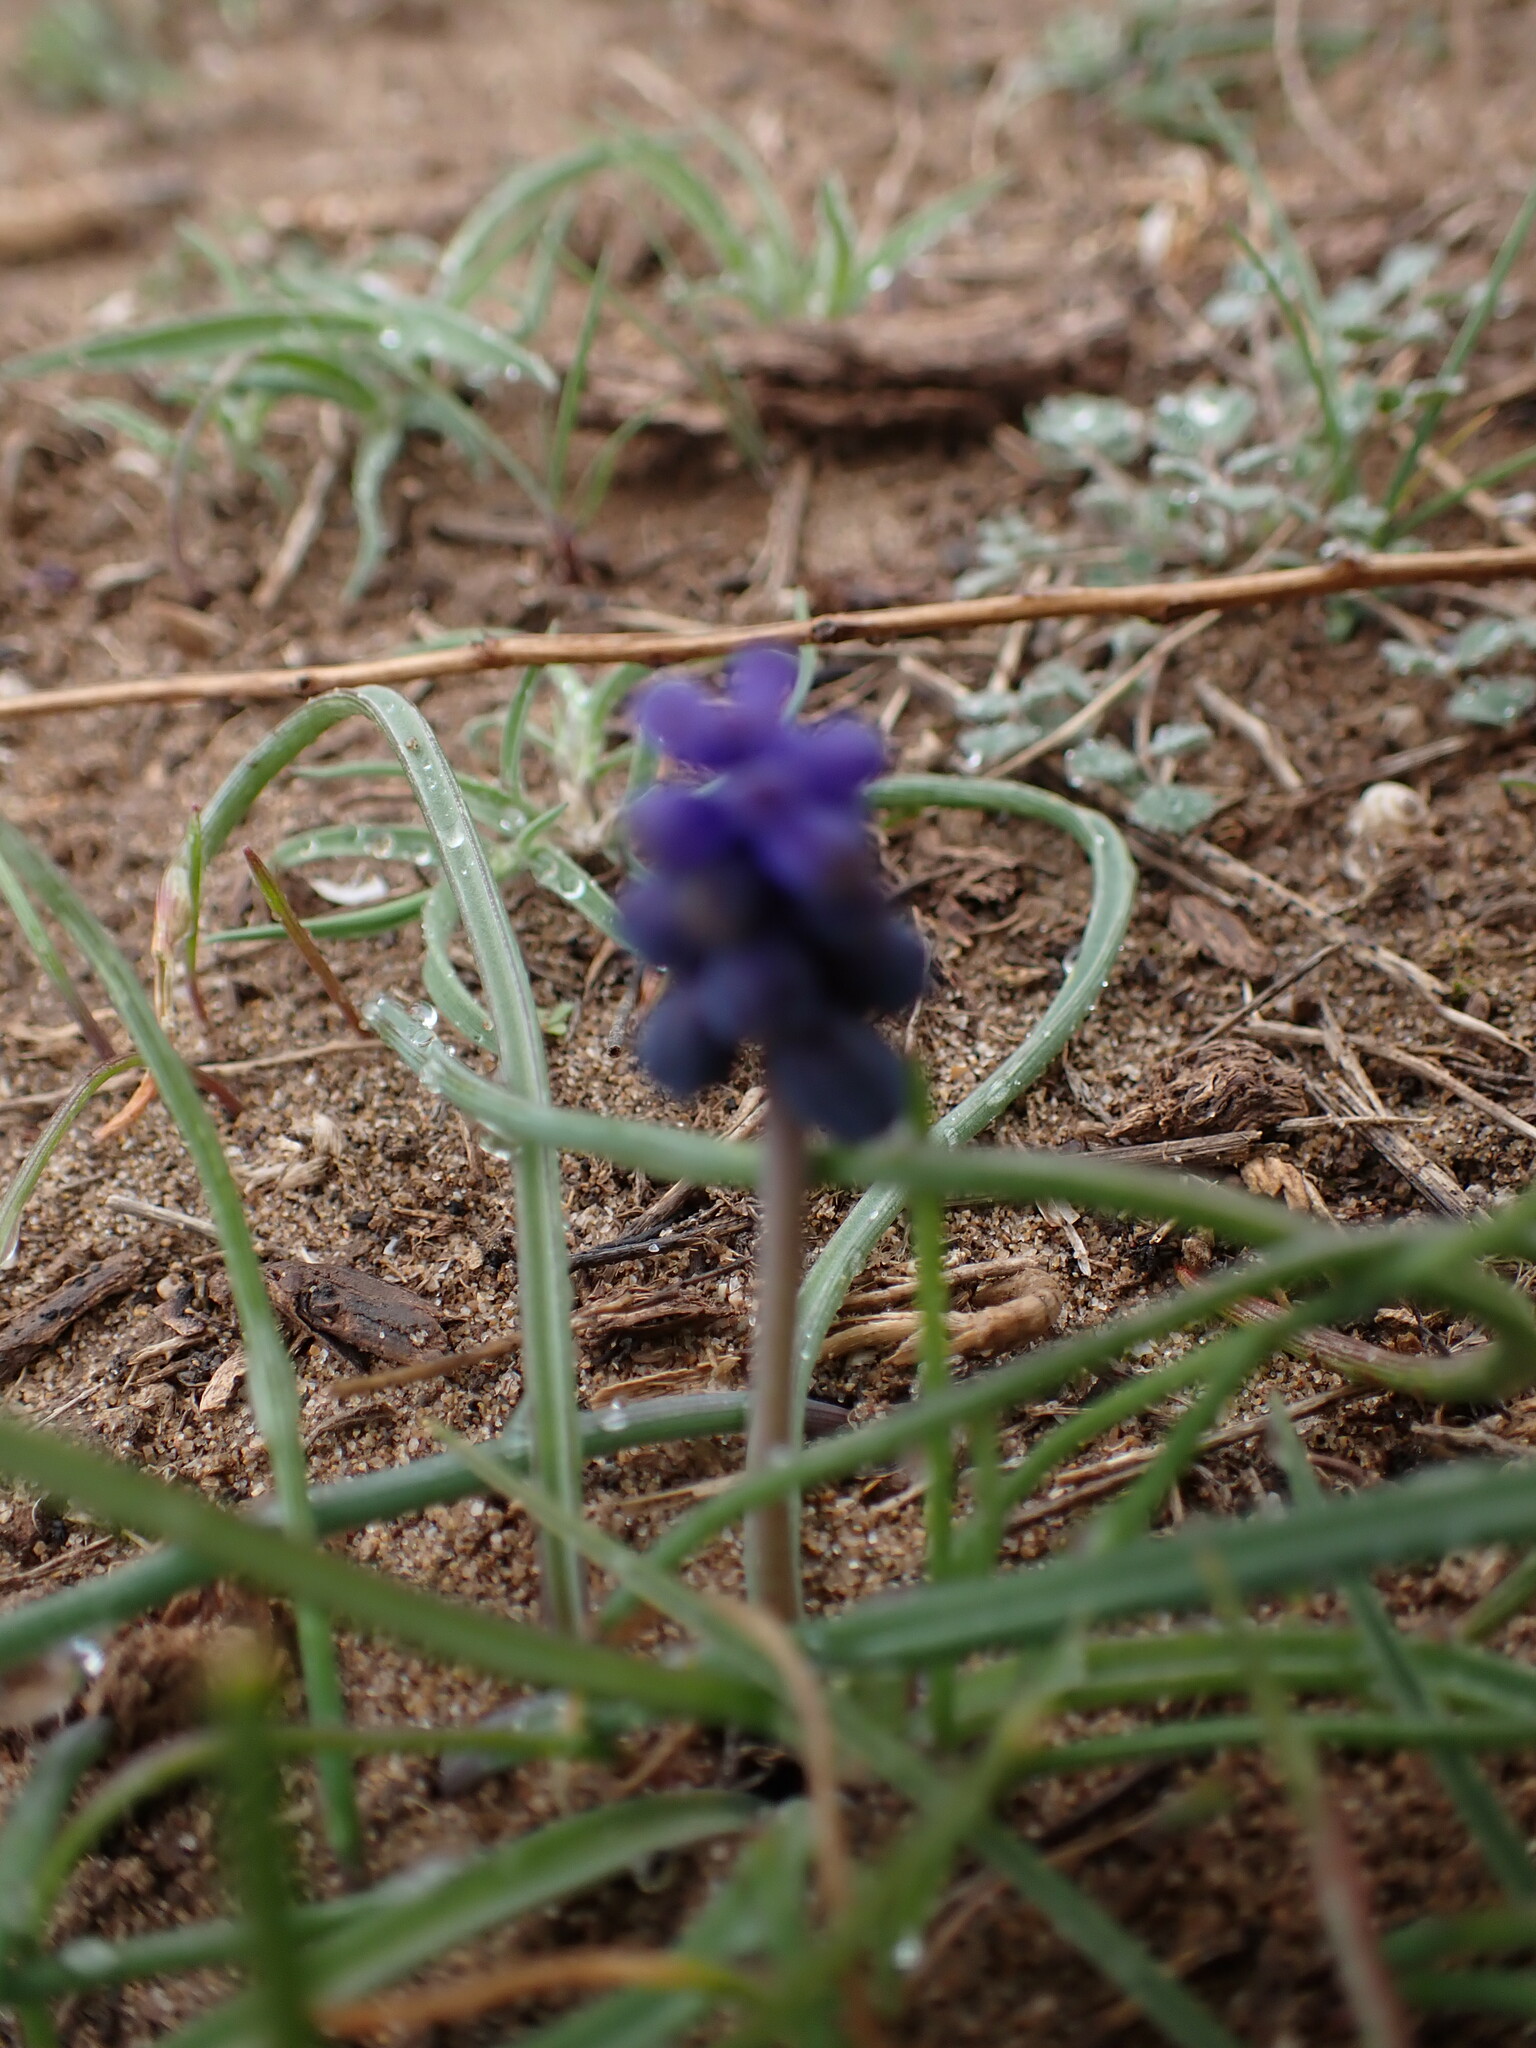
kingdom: Plantae
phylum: Tracheophyta
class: Liliopsida
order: Asparagales
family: Asparagaceae
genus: Muscari
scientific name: Muscari neglectum
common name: Grape-hyacinth
